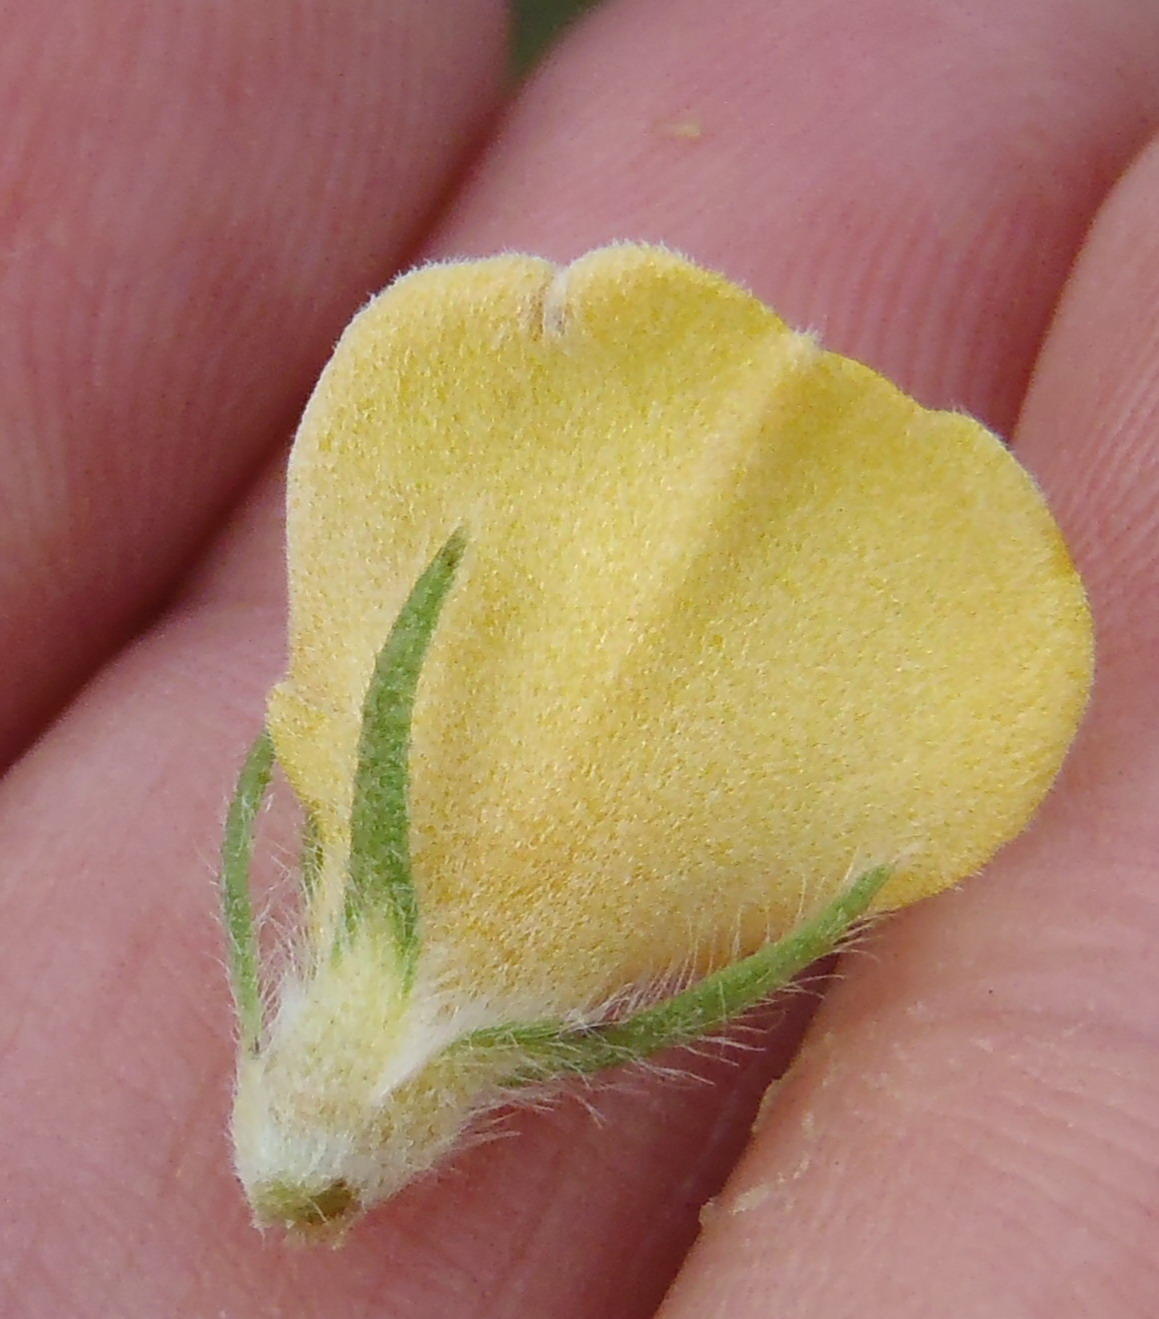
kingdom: Plantae
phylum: Tracheophyta
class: Magnoliopsida
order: Fabales
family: Fabaceae
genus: Aspalathus
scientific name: Aspalathus ciliaris
